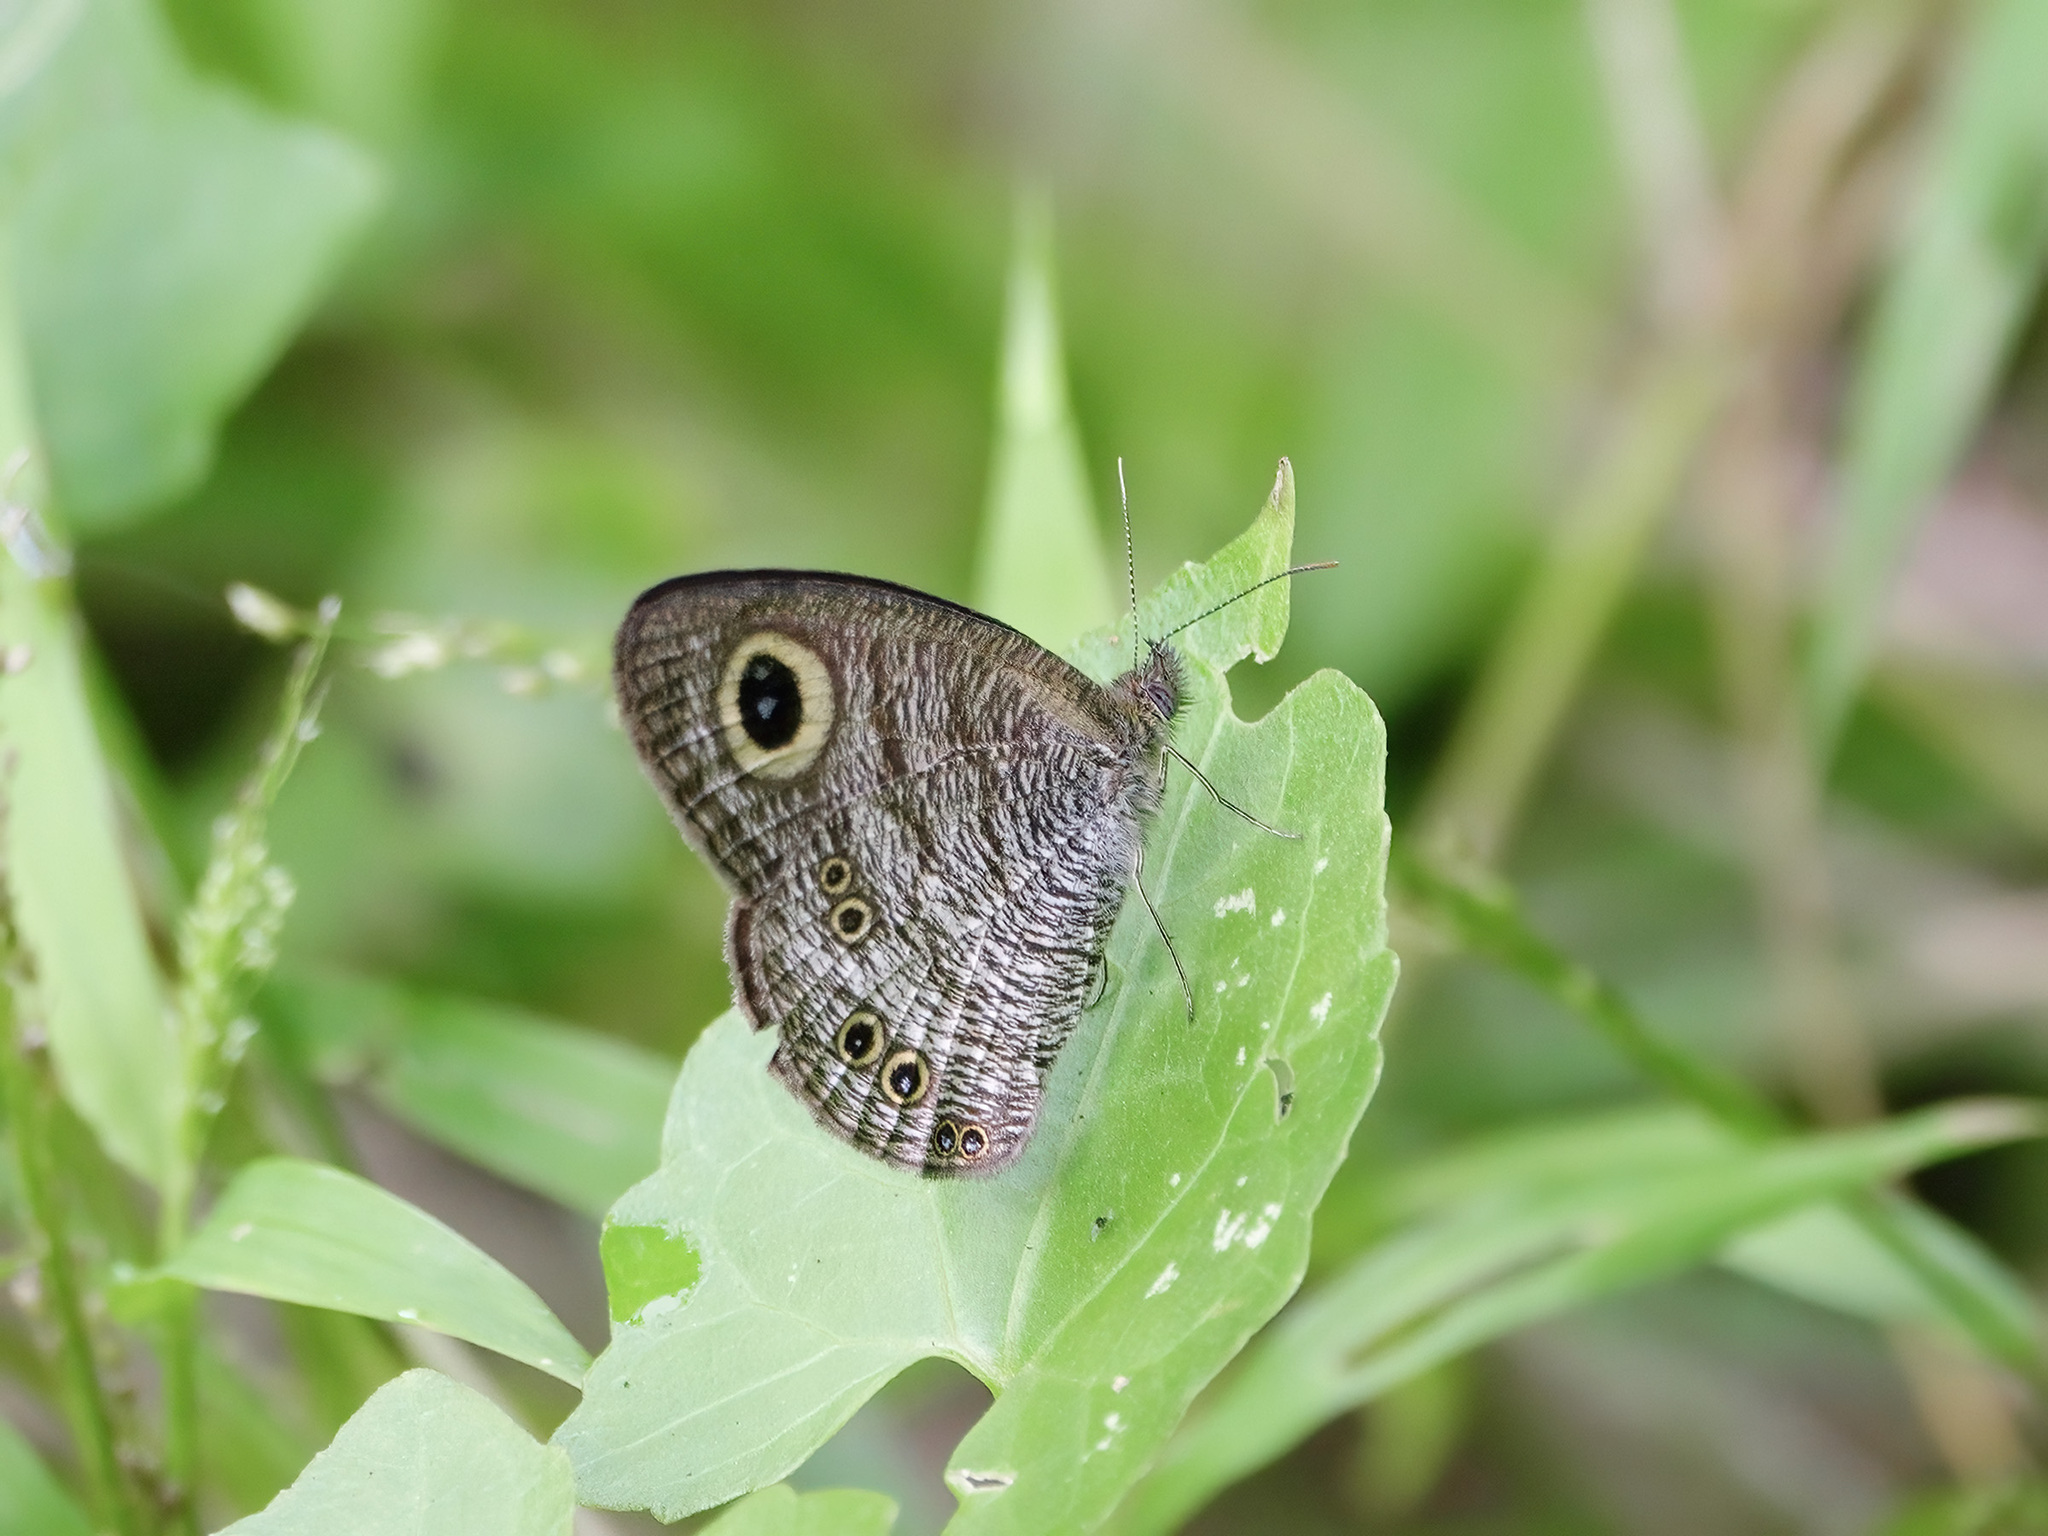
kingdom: Animalia
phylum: Arthropoda
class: Insecta
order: Lepidoptera
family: Nymphalidae
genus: Ypthima
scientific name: Ypthima baldus
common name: Common five-ring
